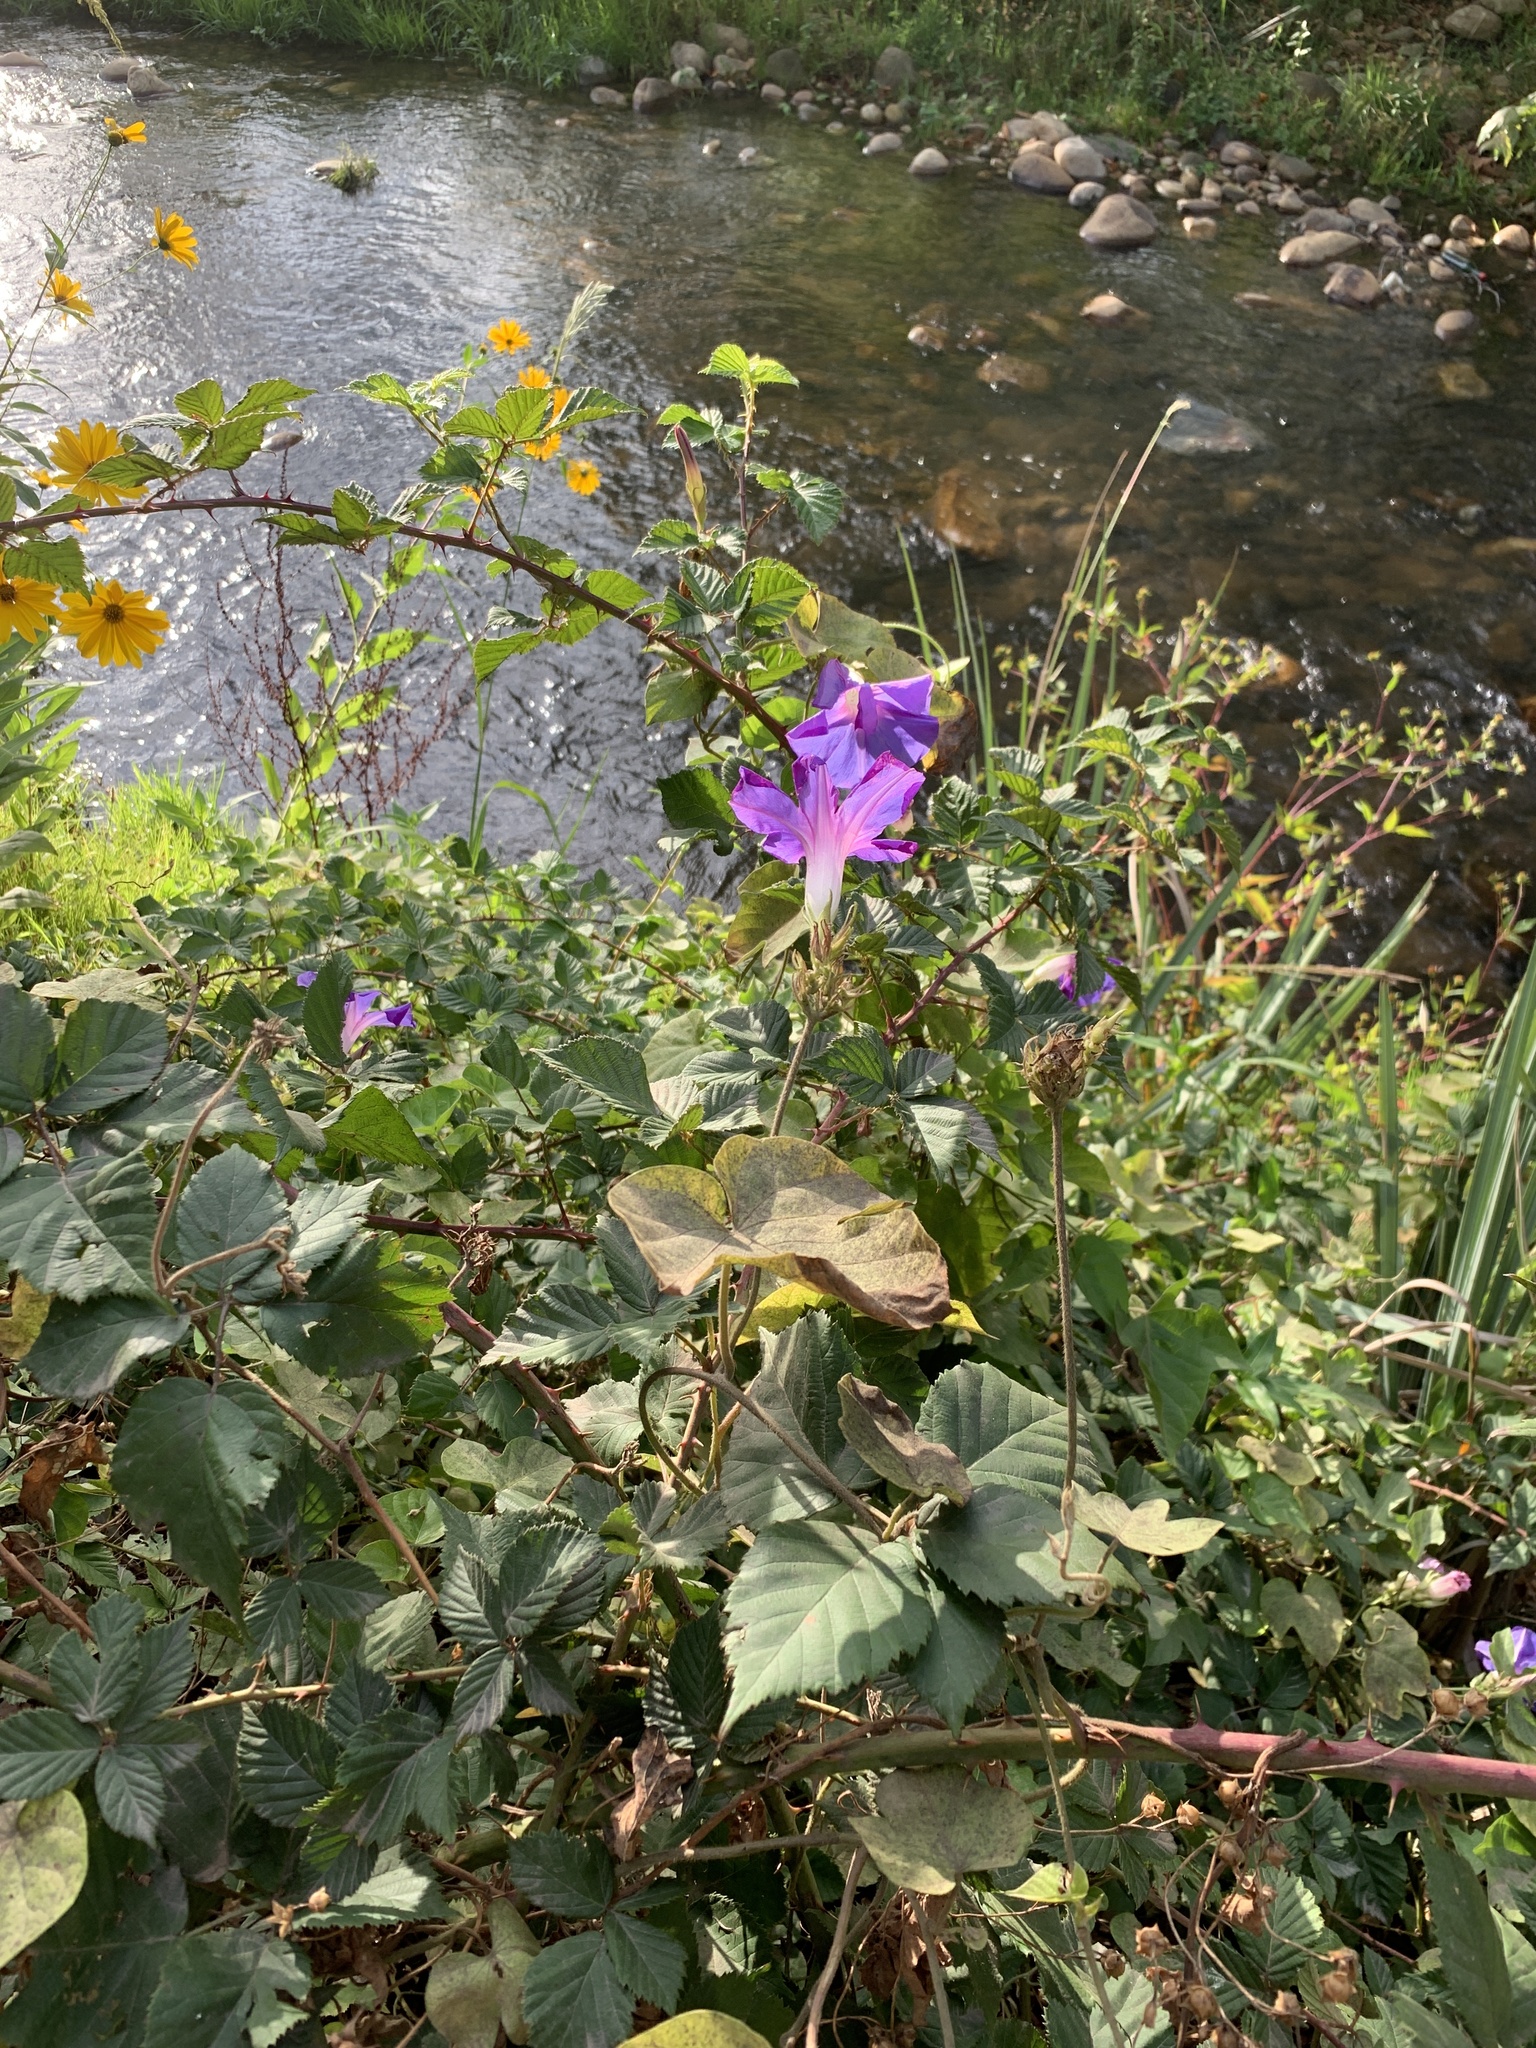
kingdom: Plantae
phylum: Tracheophyta
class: Magnoliopsida
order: Solanales
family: Convolvulaceae
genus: Ipomoea
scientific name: Ipomoea indica
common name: Blue dawnflower
